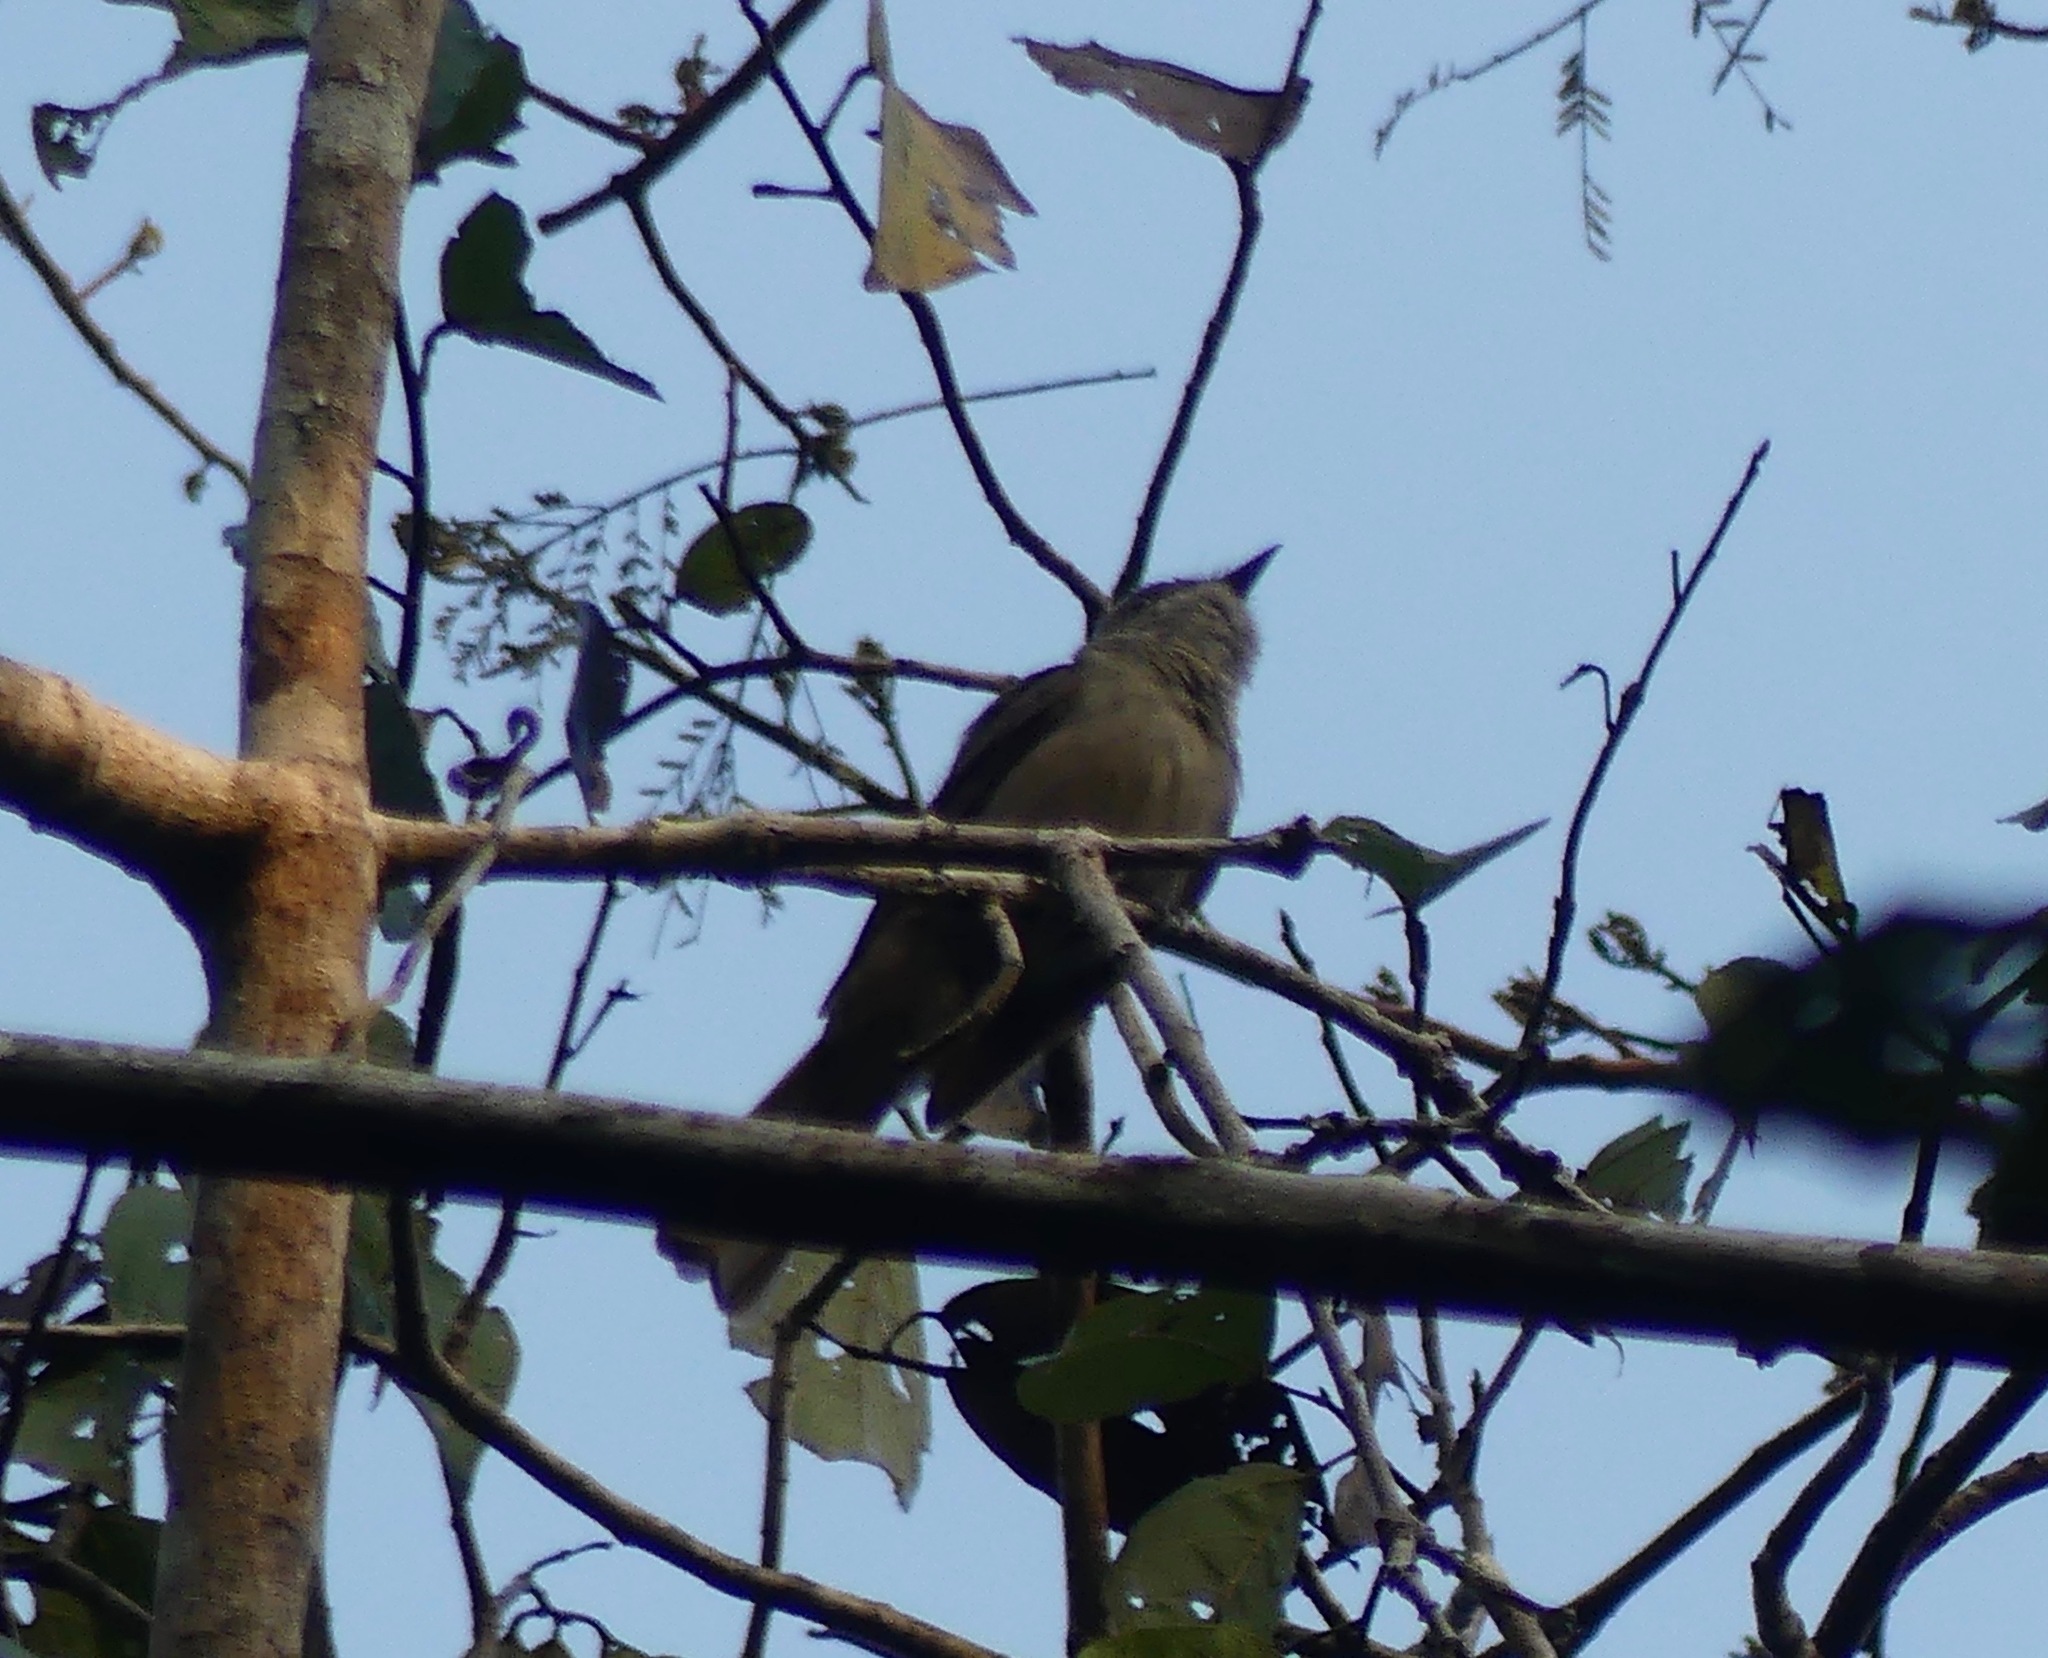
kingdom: Animalia
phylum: Chordata
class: Aves
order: Passeriformes
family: Tyrannidae
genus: Empidonomus
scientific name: Empidonomus aurantioatrocristatus
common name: Crowned slaty flycatcher
